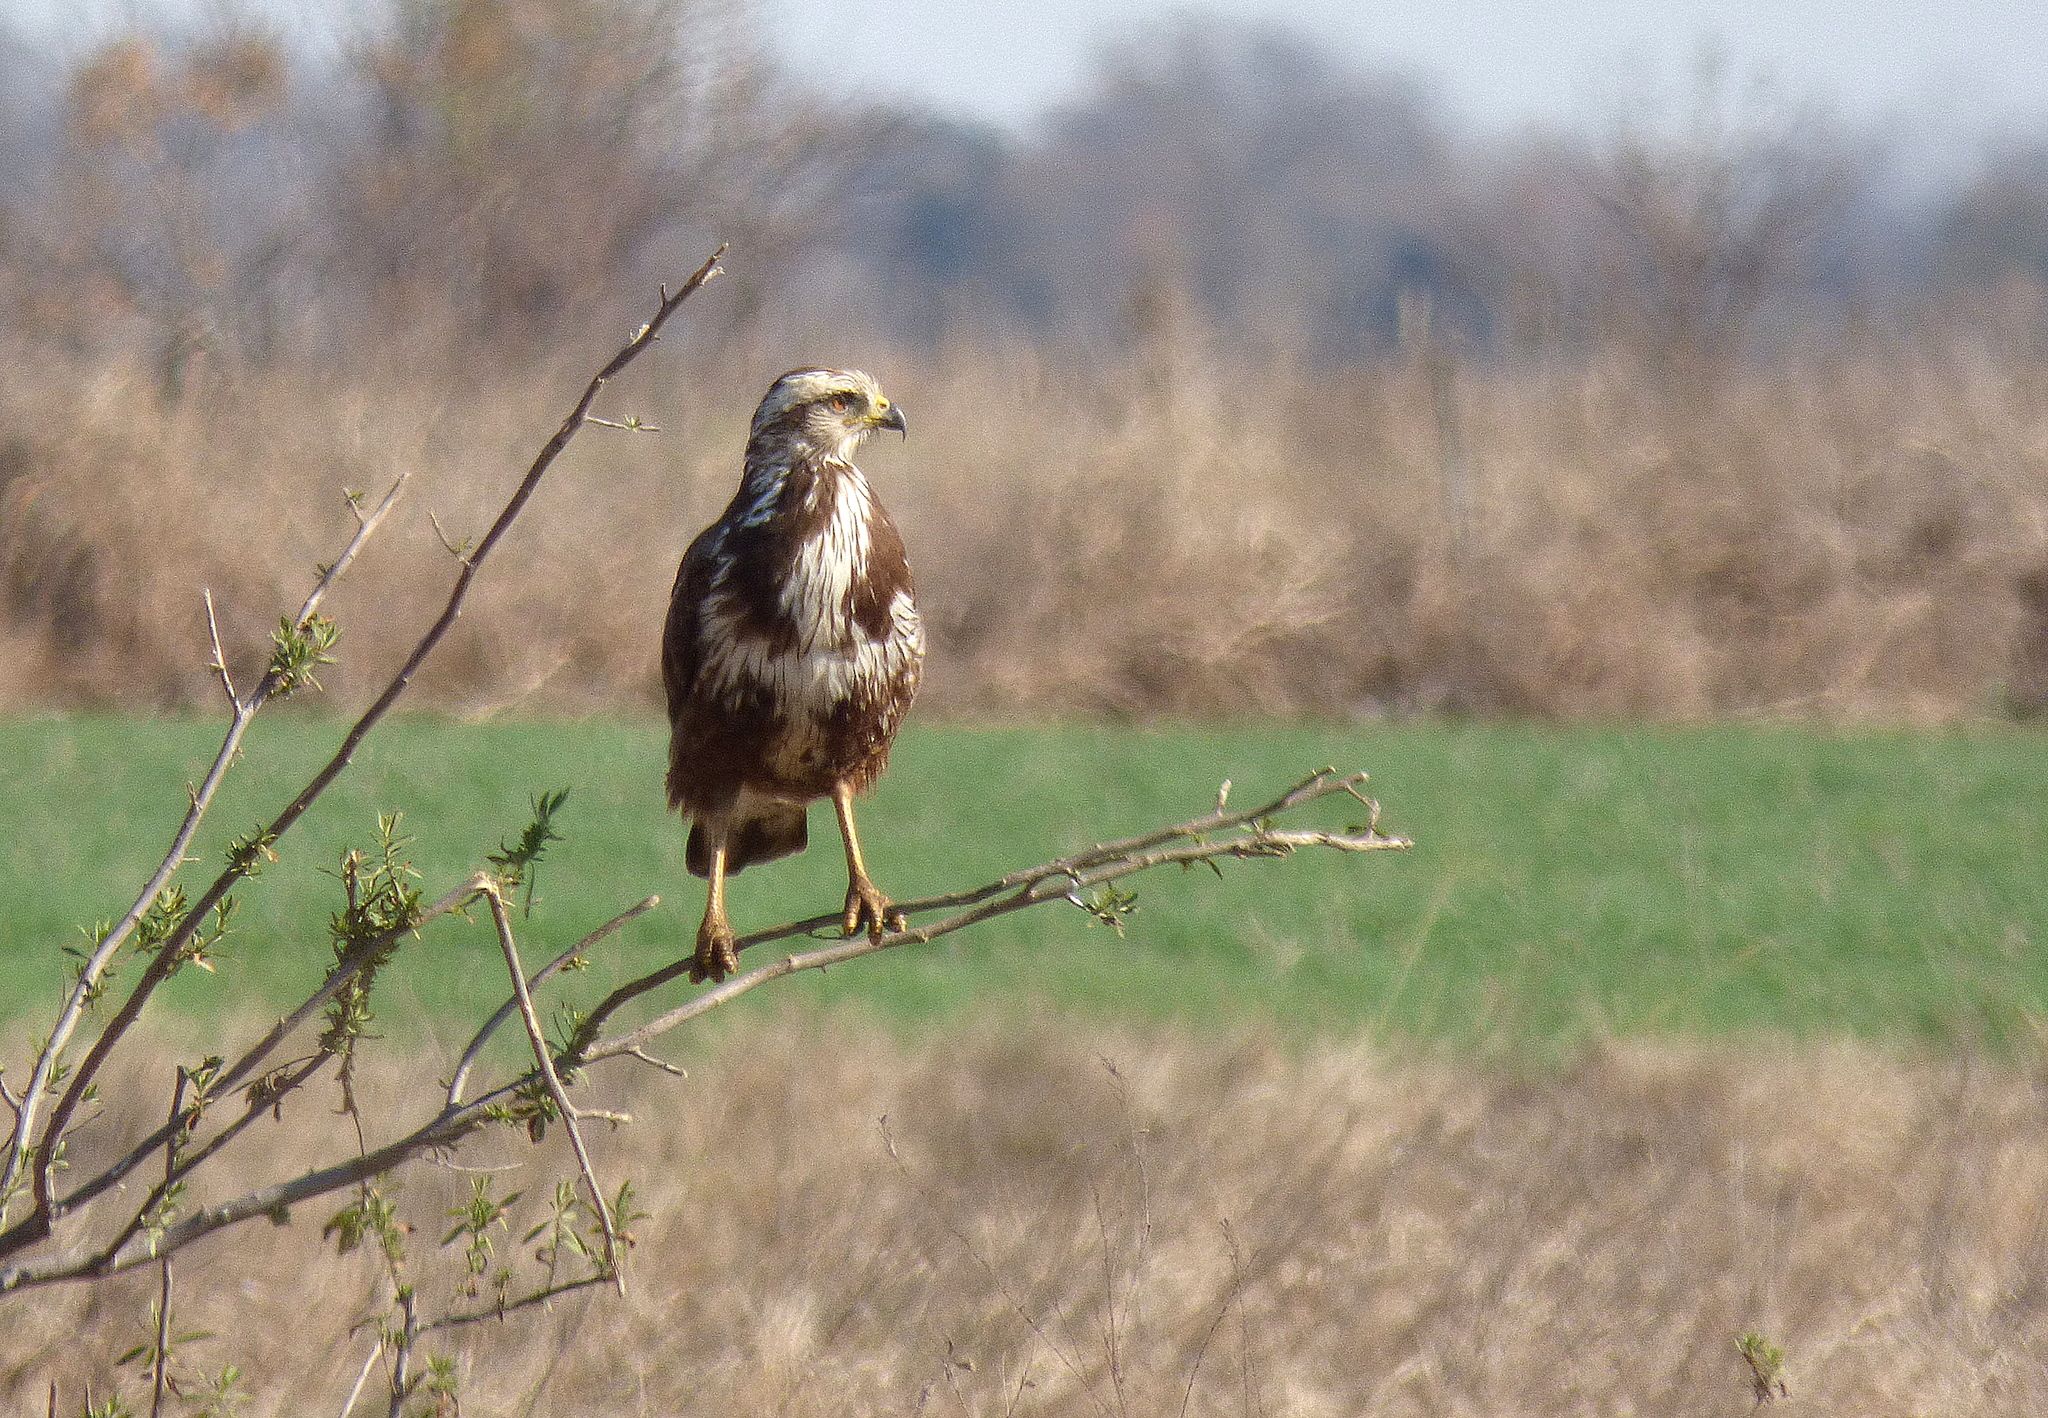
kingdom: Animalia
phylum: Chordata
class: Aves
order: Accipitriformes
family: Accipitridae
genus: Buteogallus
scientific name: Buteogallus meridionalis
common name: Savanna hawk
